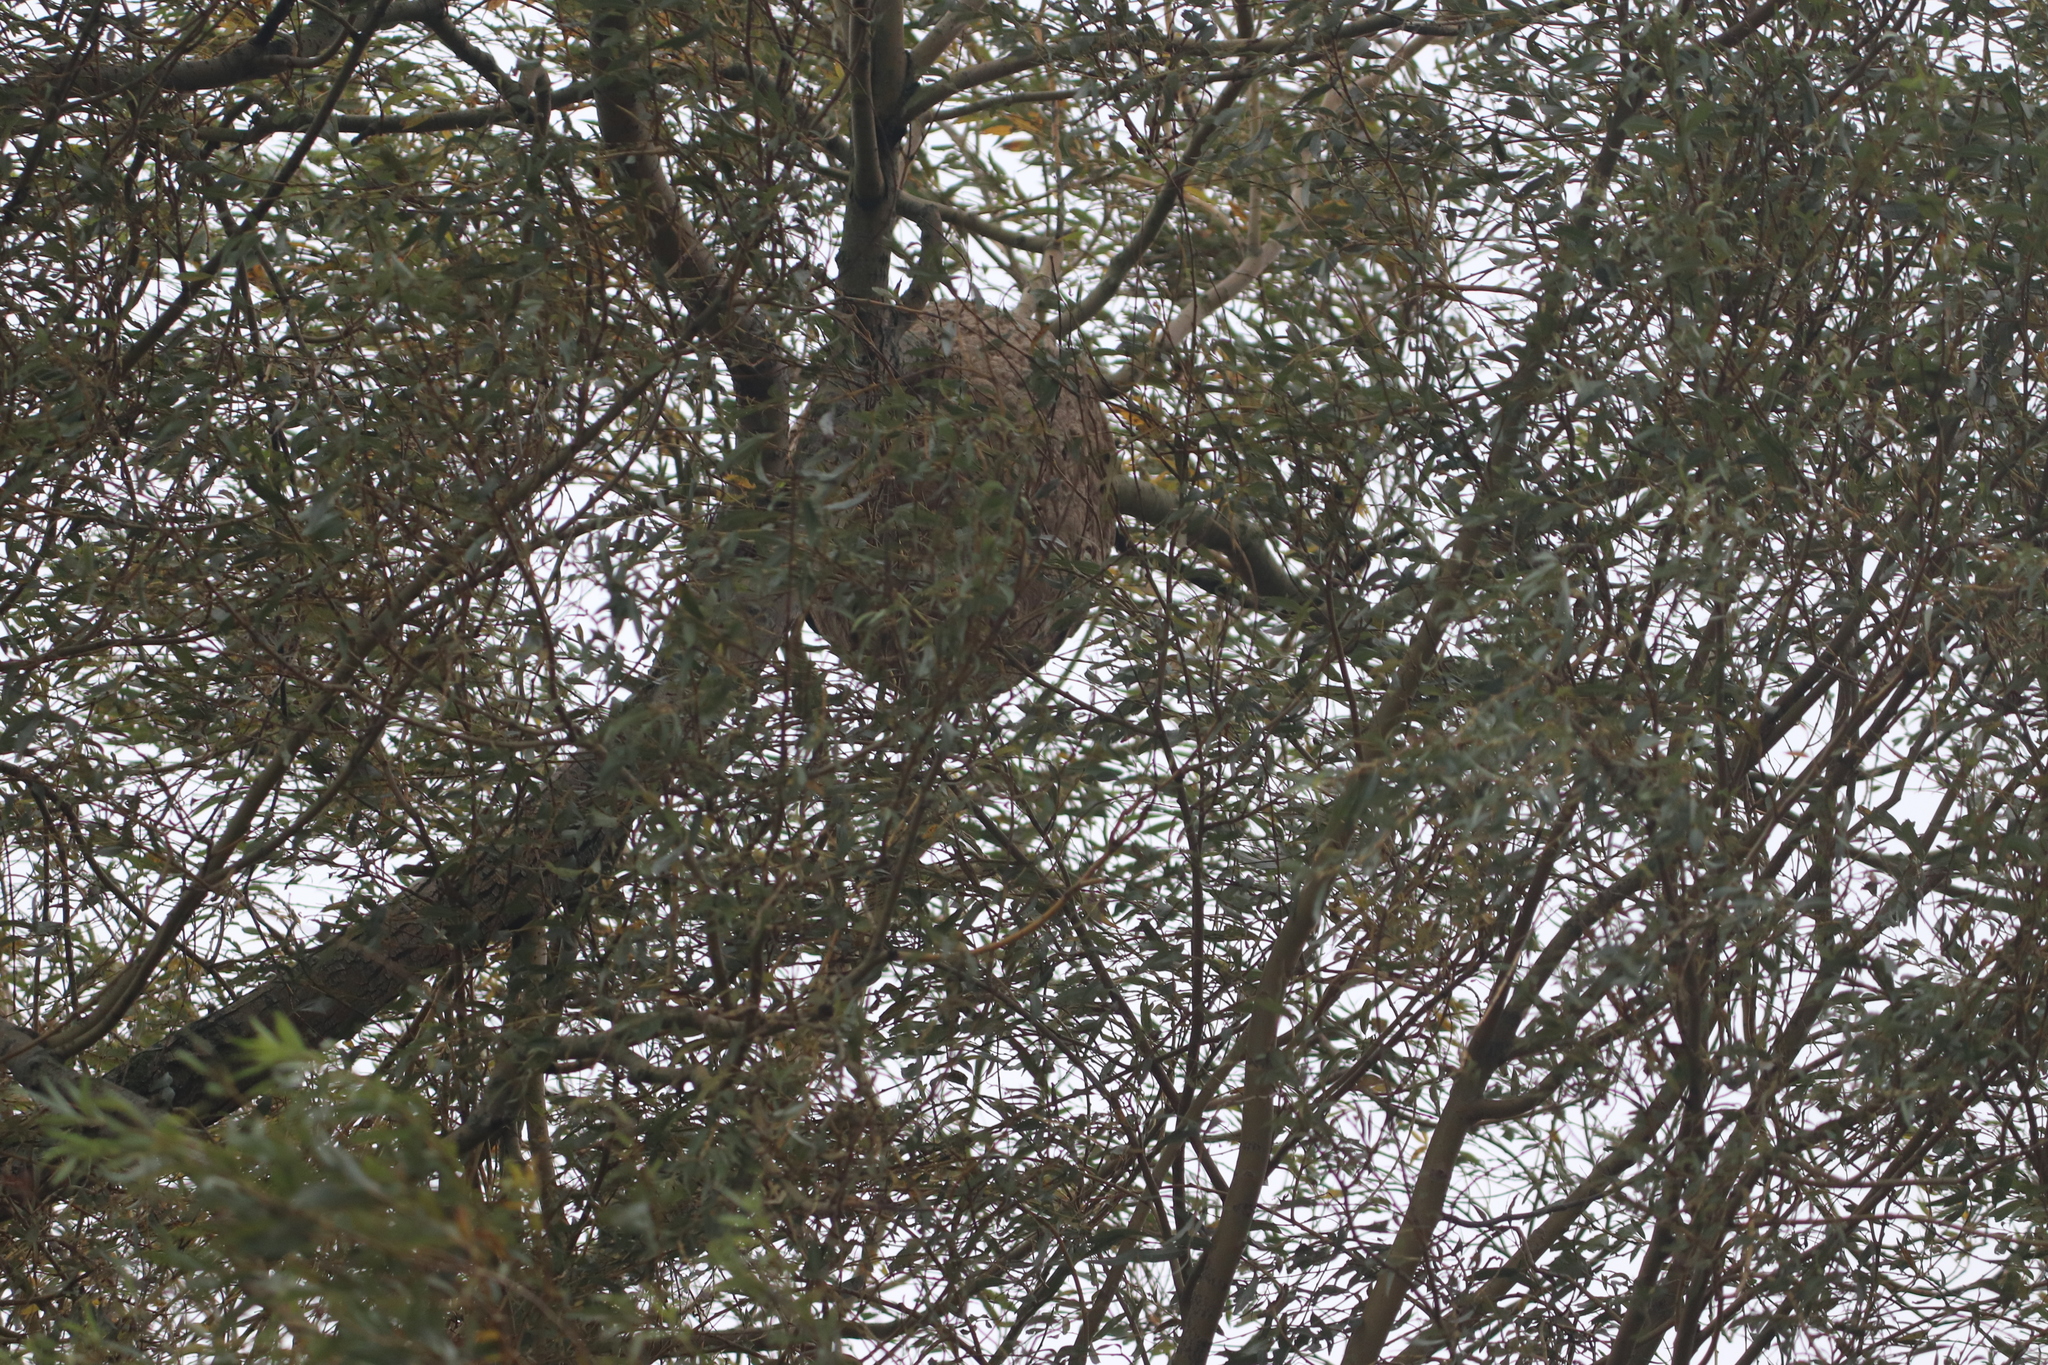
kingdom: Animalia
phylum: Arthropoda
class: Insecta
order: Hymenoptera
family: Vespidae
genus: Vespa
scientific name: Vespa velutina
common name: Asian hornet
